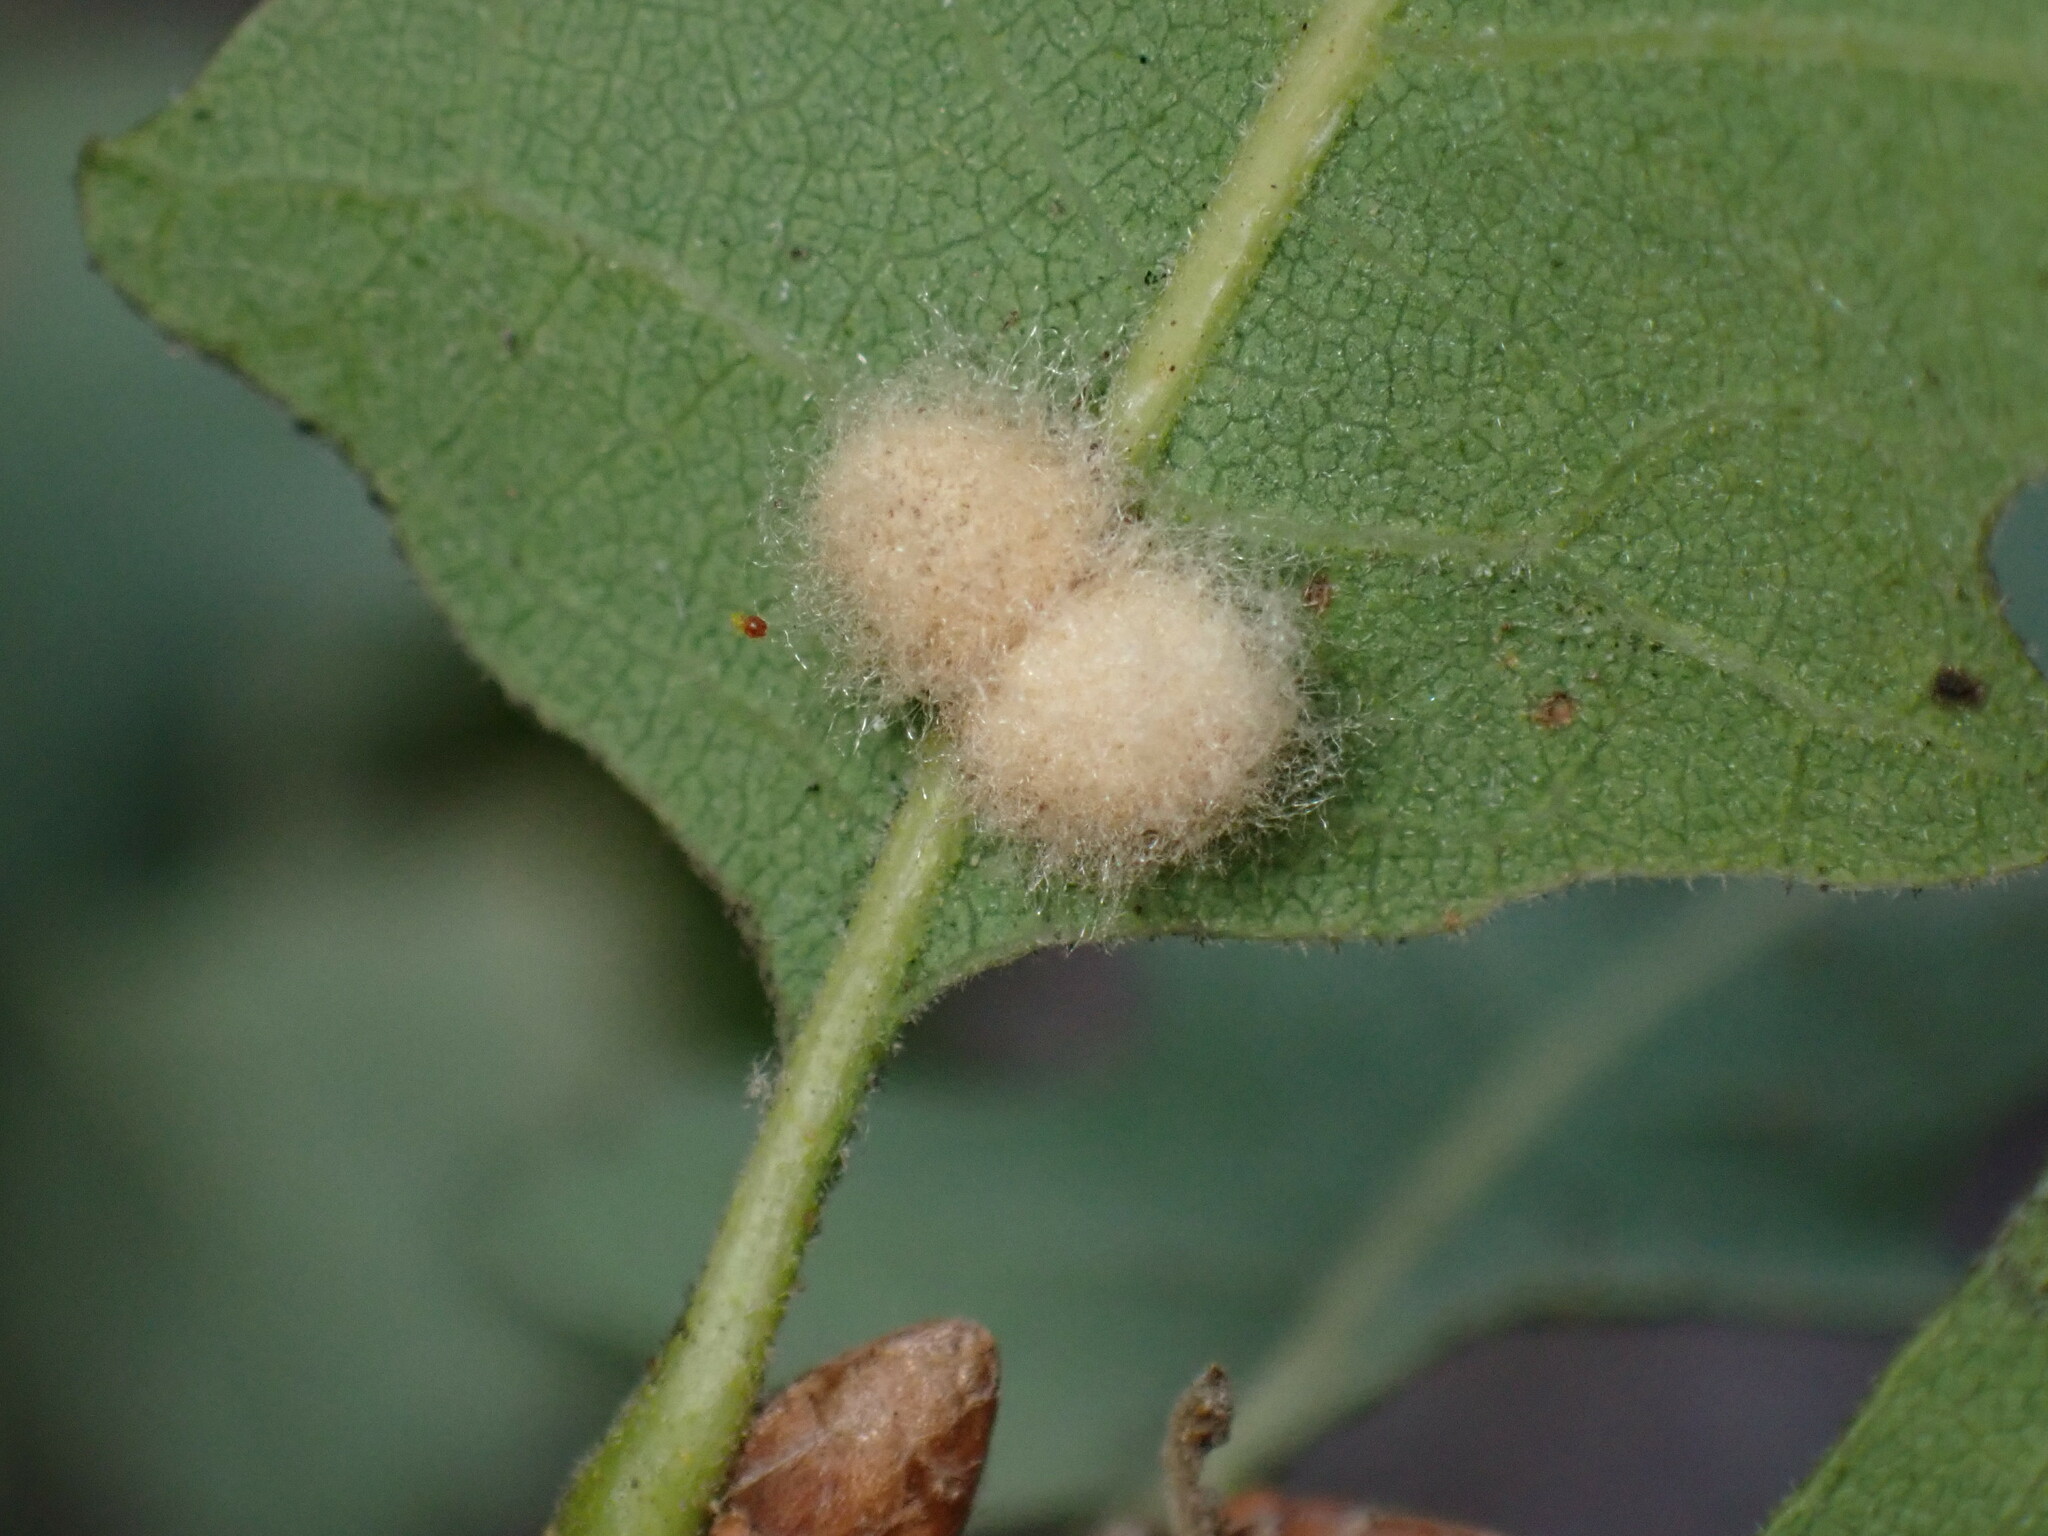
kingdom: Animalia
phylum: Arthropoda
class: Insecta
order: Hymenoptera
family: Cynipidae
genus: Andricus
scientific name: Andricus Druon fullawayi
